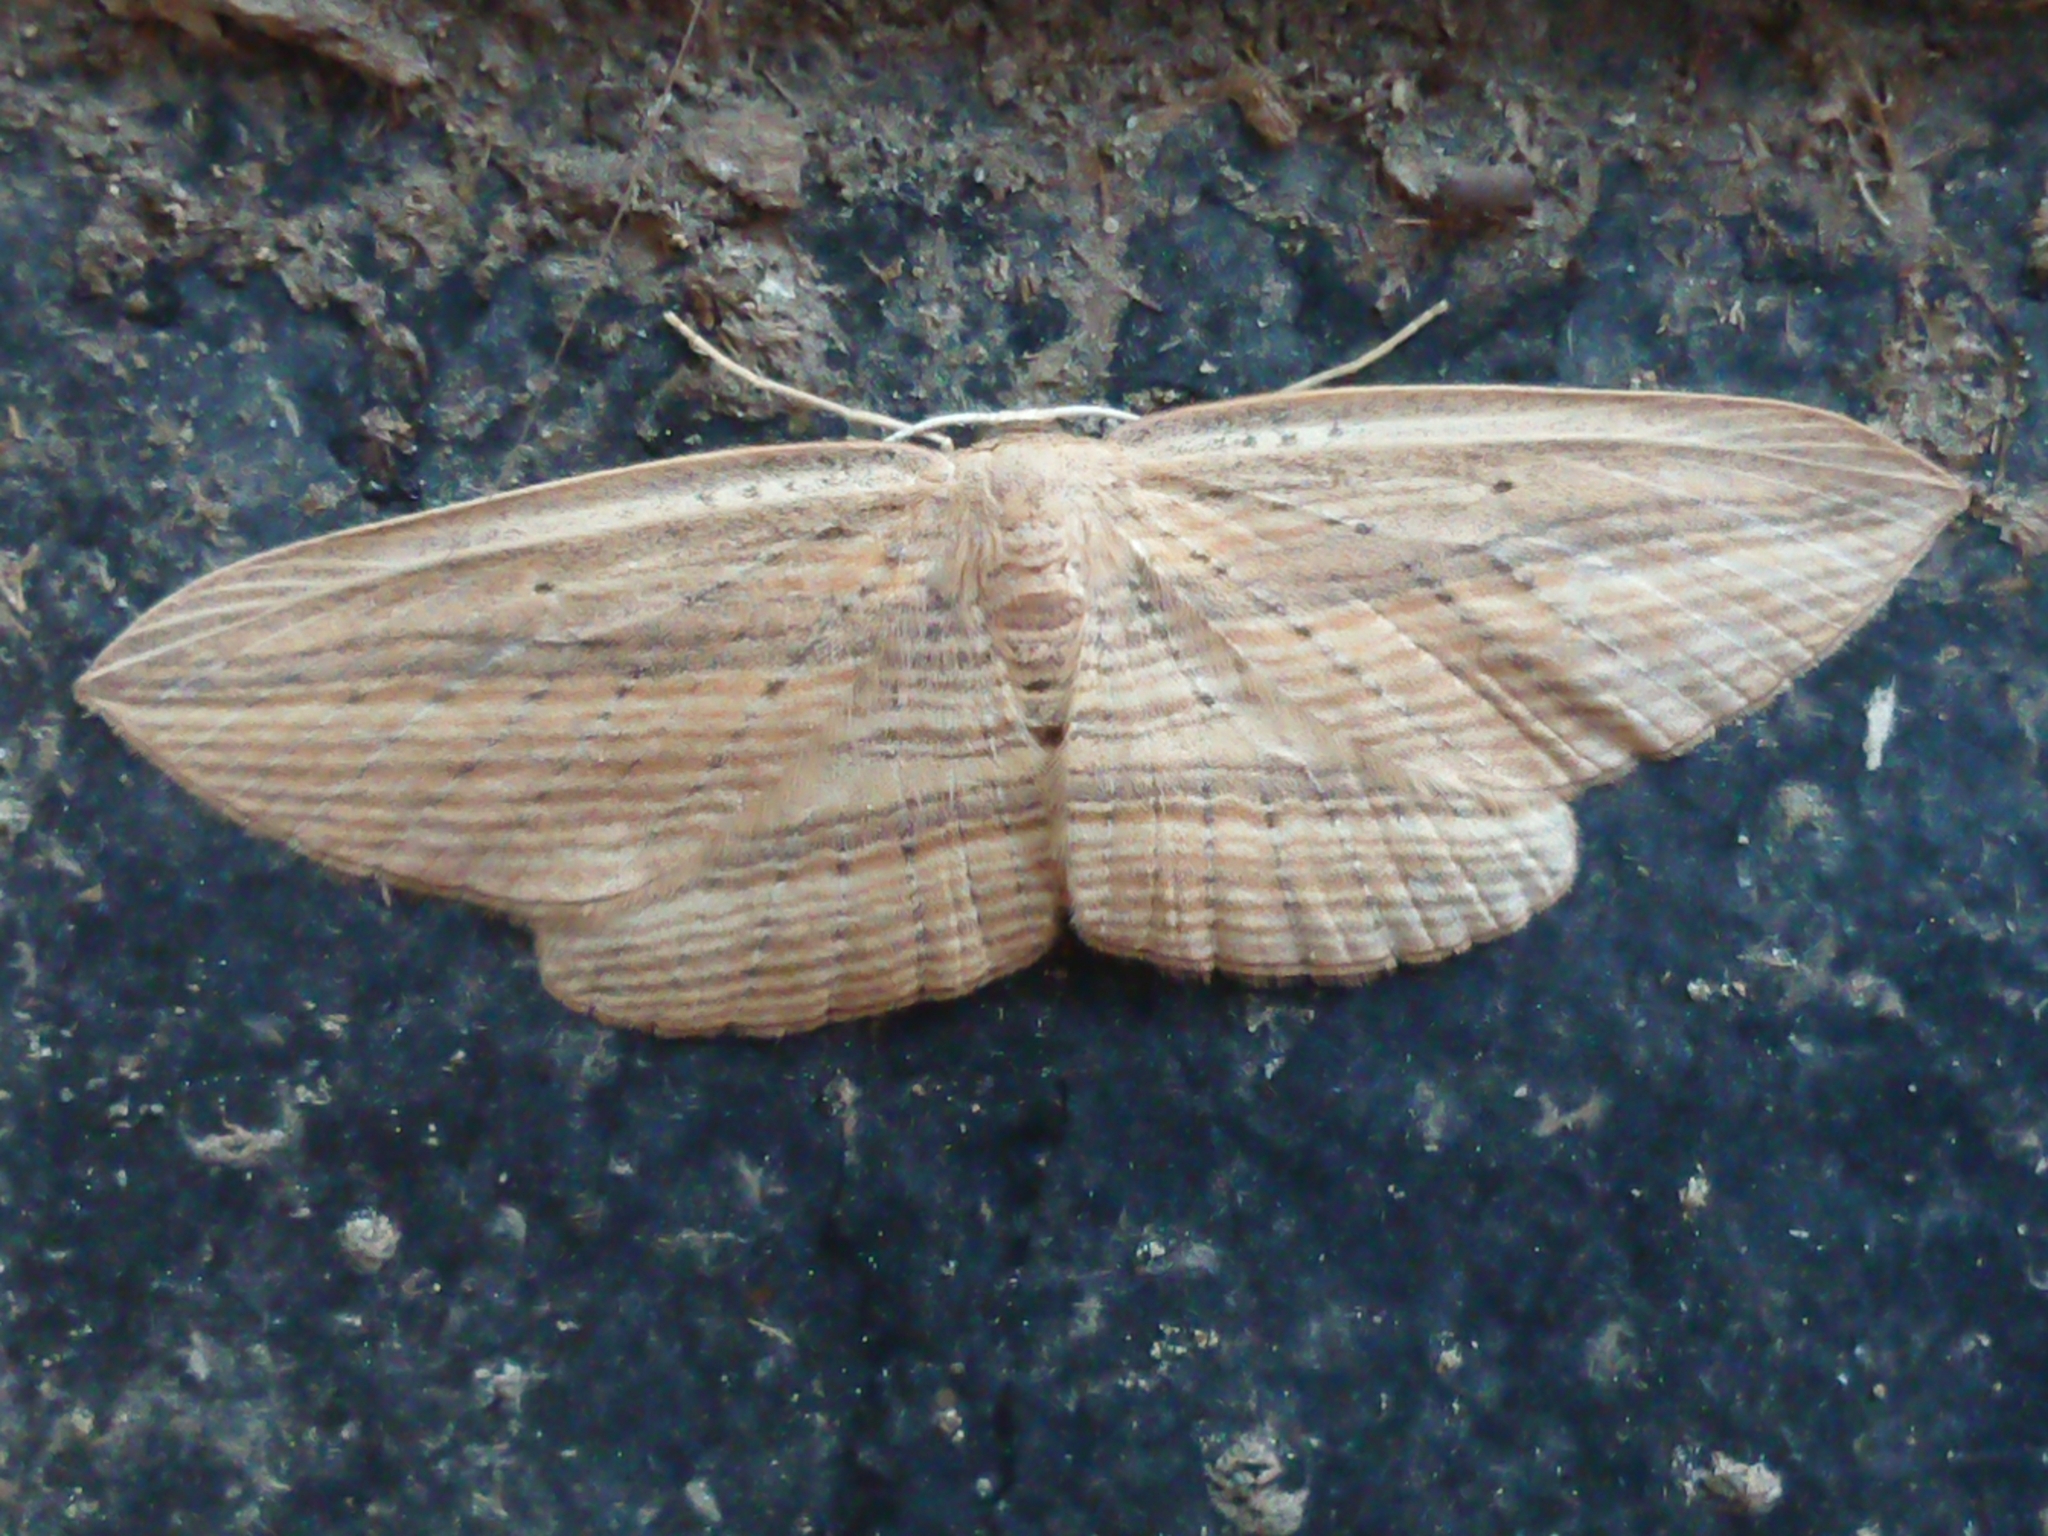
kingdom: Animalia
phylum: Arthropoda
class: Insecta
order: Lepidoptera
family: Geometridae
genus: Epiphryne
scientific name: Epiphryne verriculata
